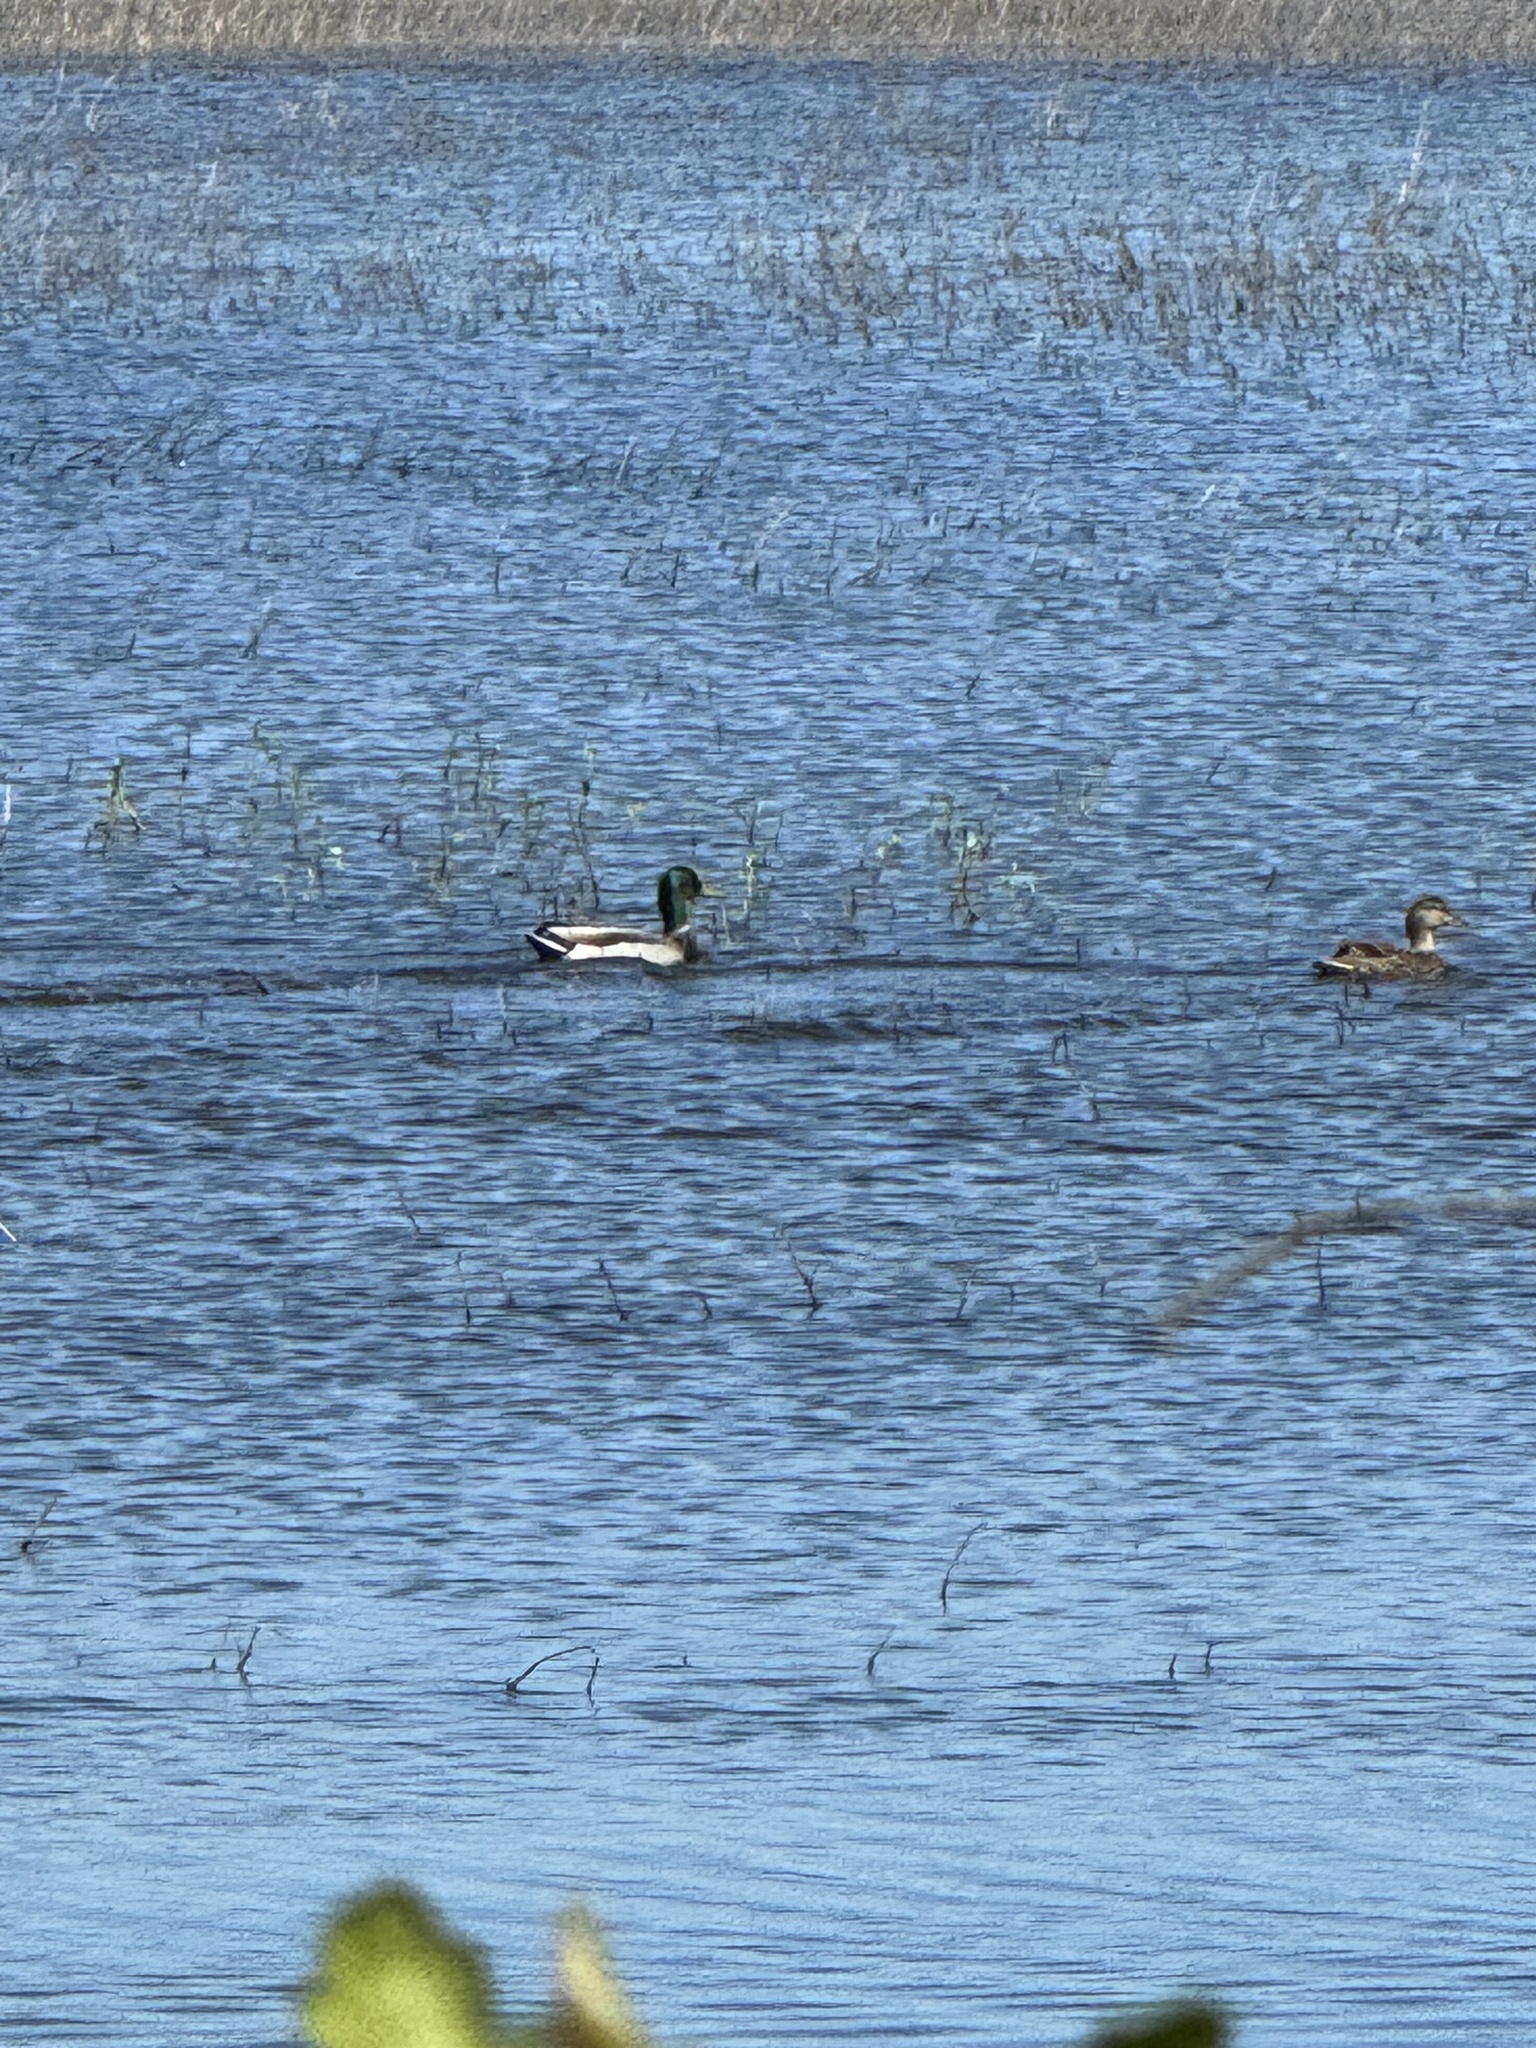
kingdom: Animalia
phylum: Chordata
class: Aves
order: Anseriformes
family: Anatidae
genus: Anas
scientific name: Anas platyrhynchos
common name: Mallard
